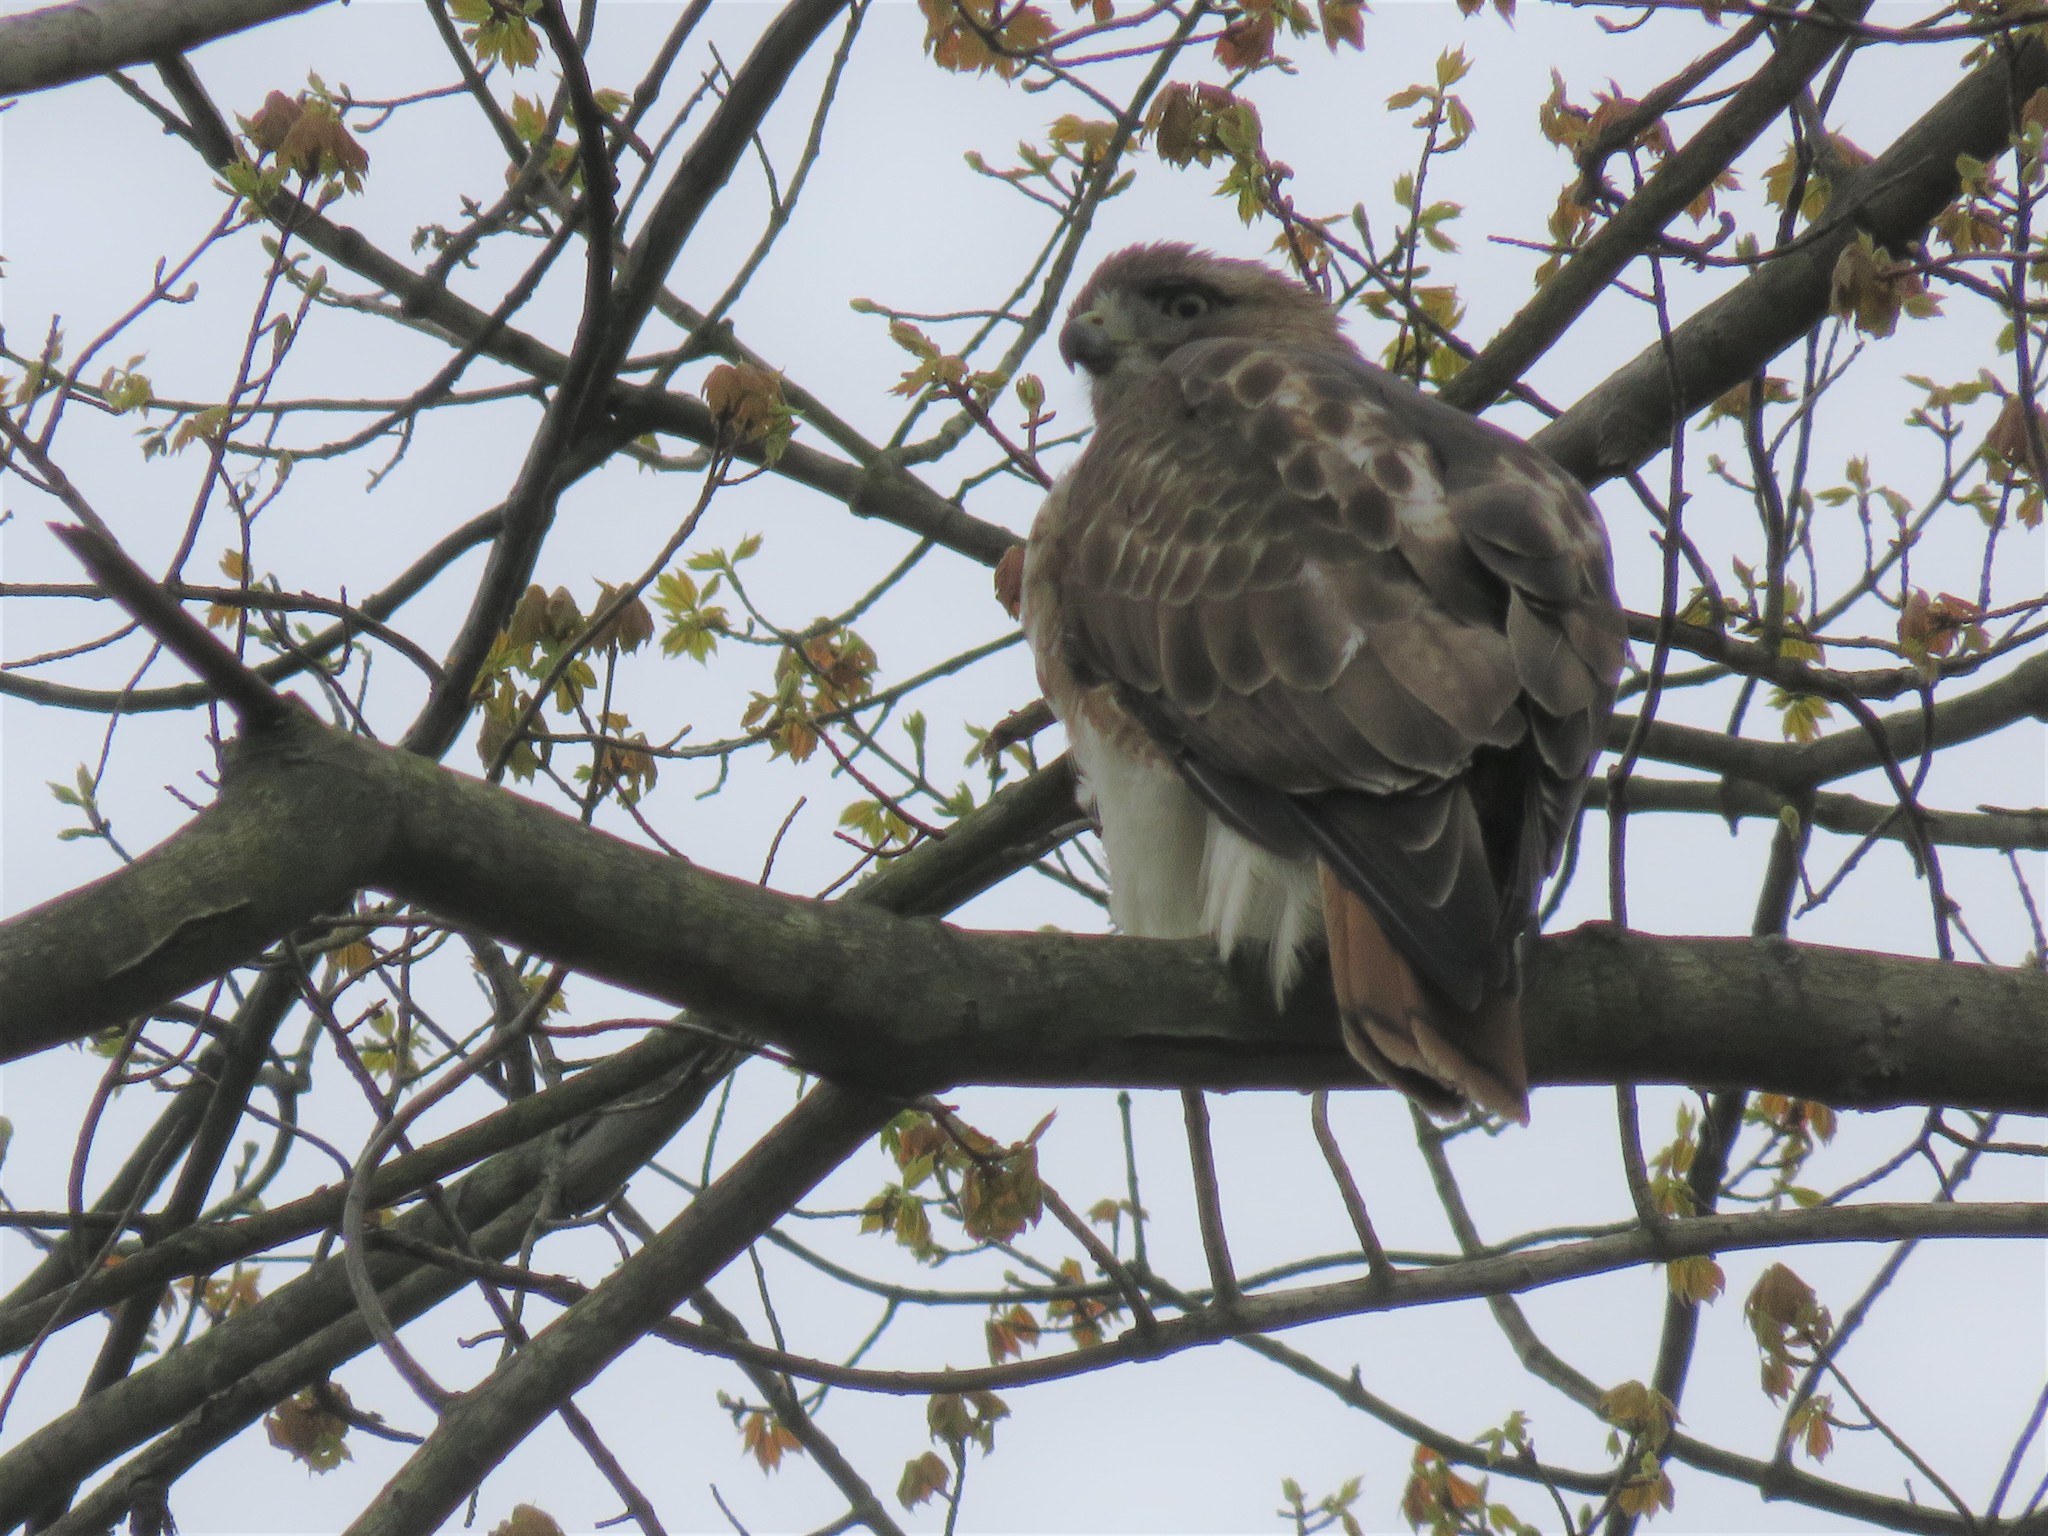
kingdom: Animalia
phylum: Chordata
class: Aves
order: Accipitriformes
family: Accipitridae
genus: Buteo
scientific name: Buteo jamaicensis
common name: Red-tailed hawk
